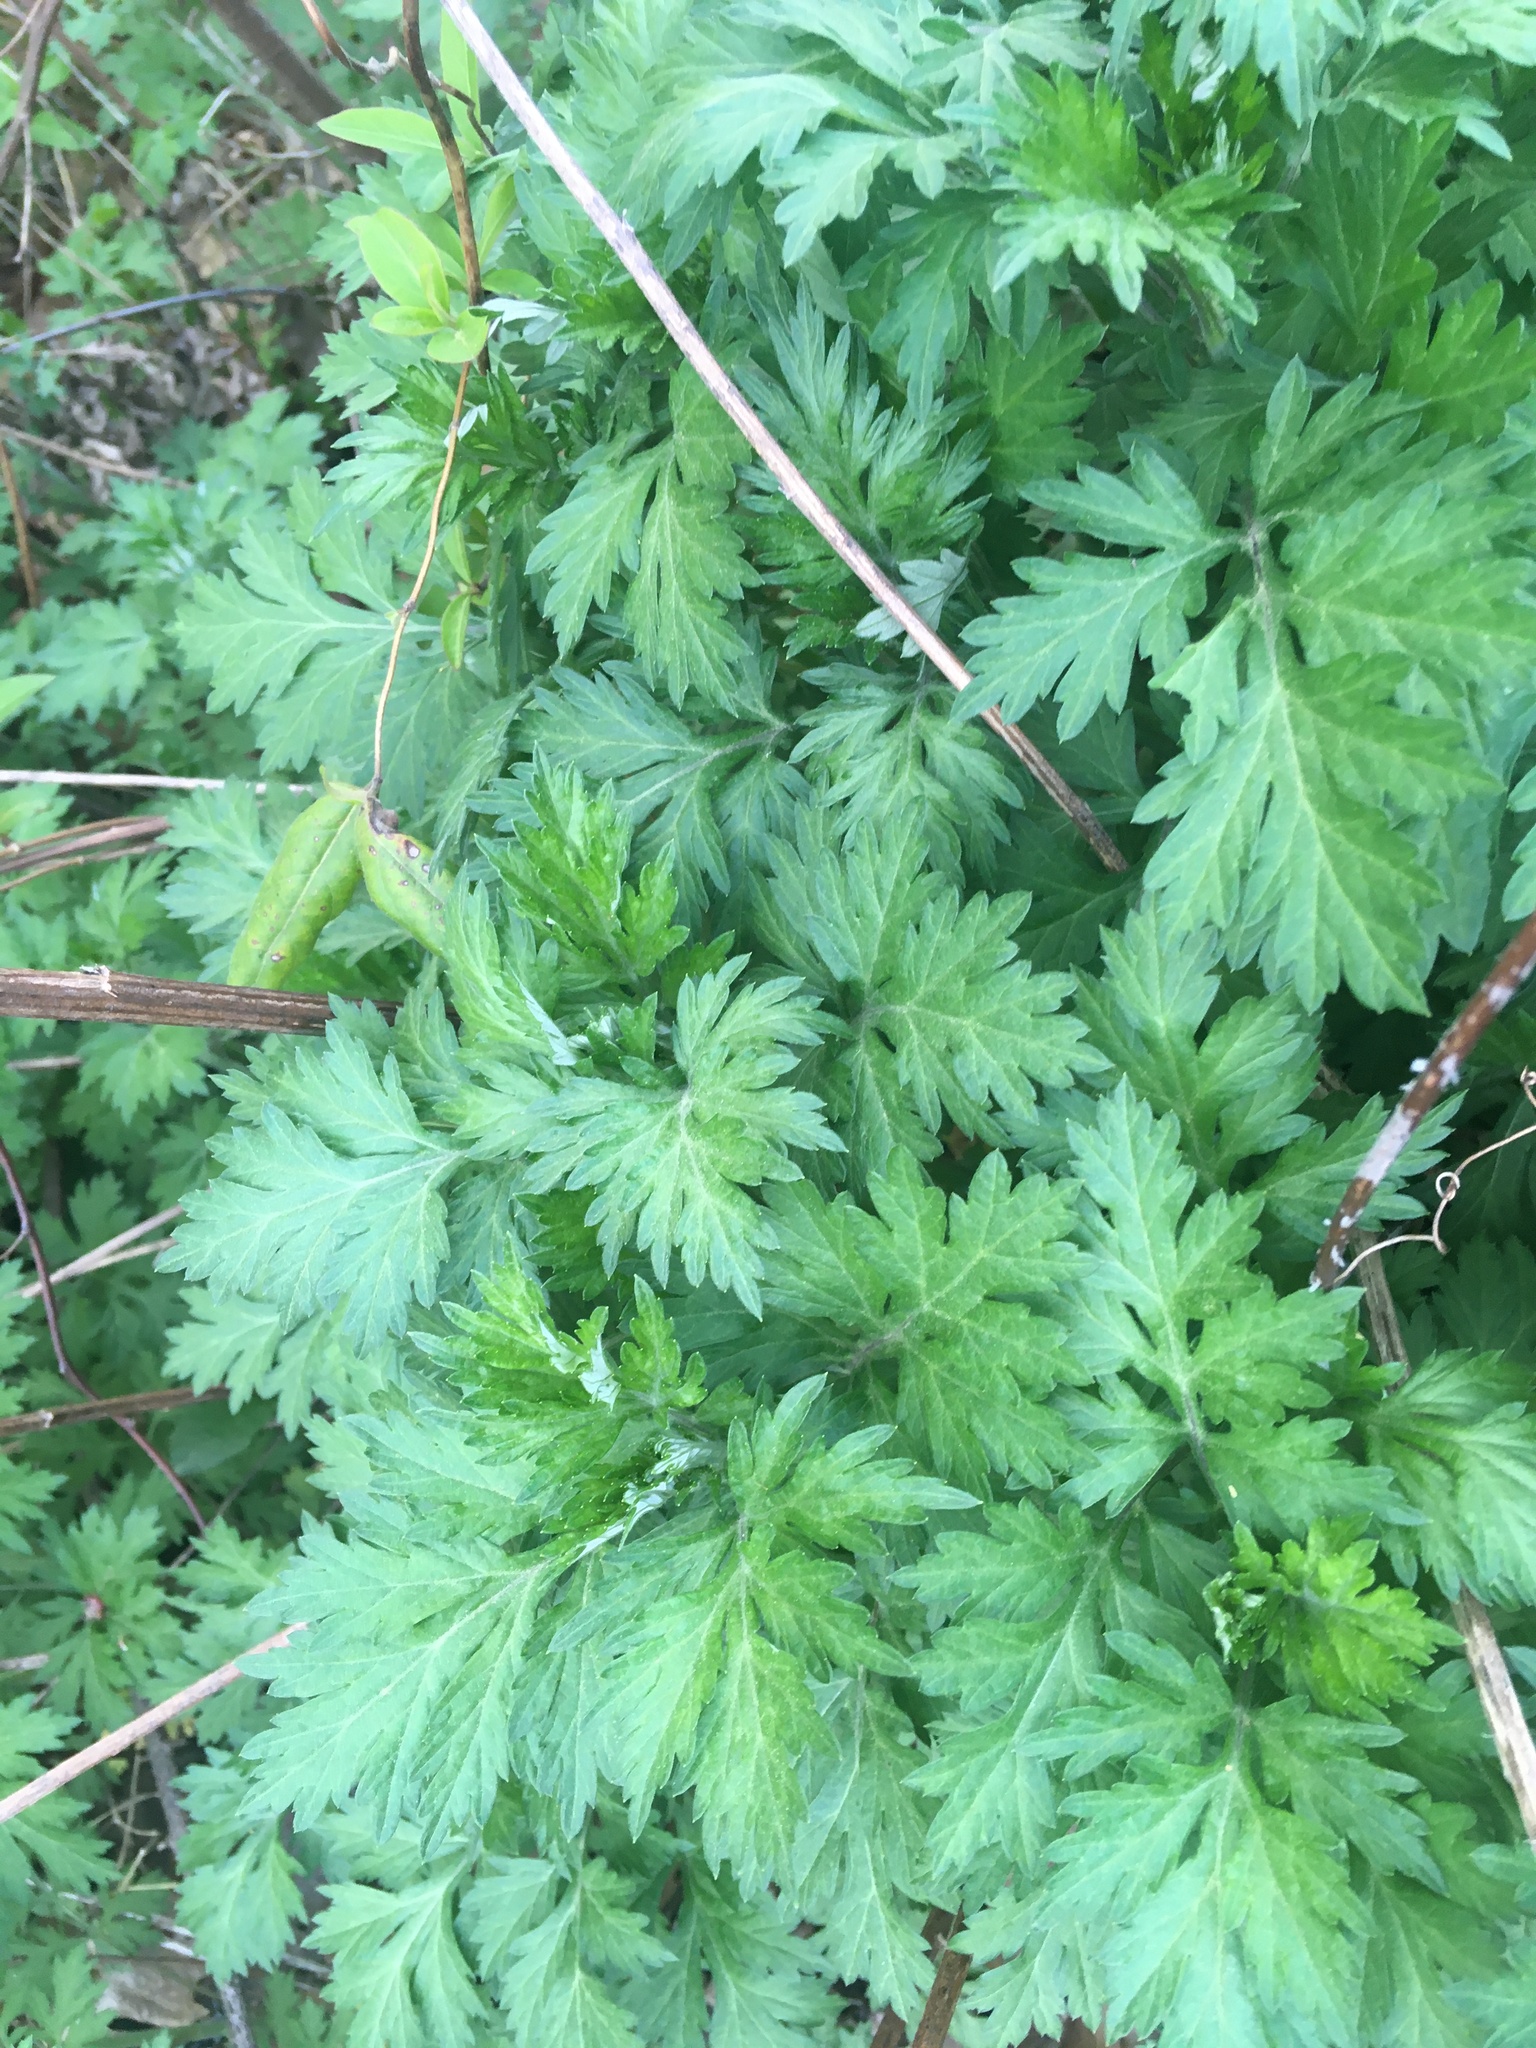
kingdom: Plantae
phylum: Tracheophyta
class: Magnoliopsida
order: Asterales
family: Asteraceae
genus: Artemisia
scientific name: Artemisia vulgaris
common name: Mugwort
